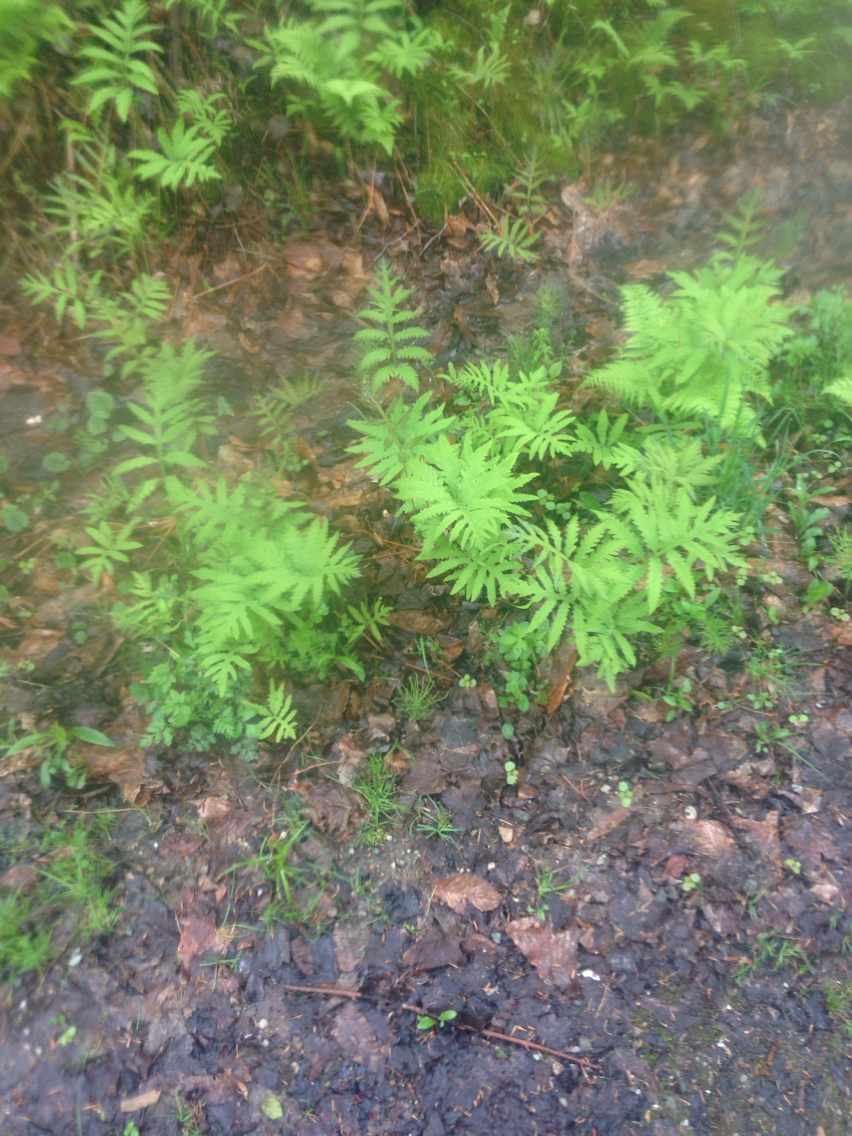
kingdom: Plantae
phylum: Tracheophyta
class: Polypodiopsida
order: Polypodiales
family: Onocleaceae
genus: Onoclea
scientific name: Onoclea sensibilis
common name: Sensitive fern
